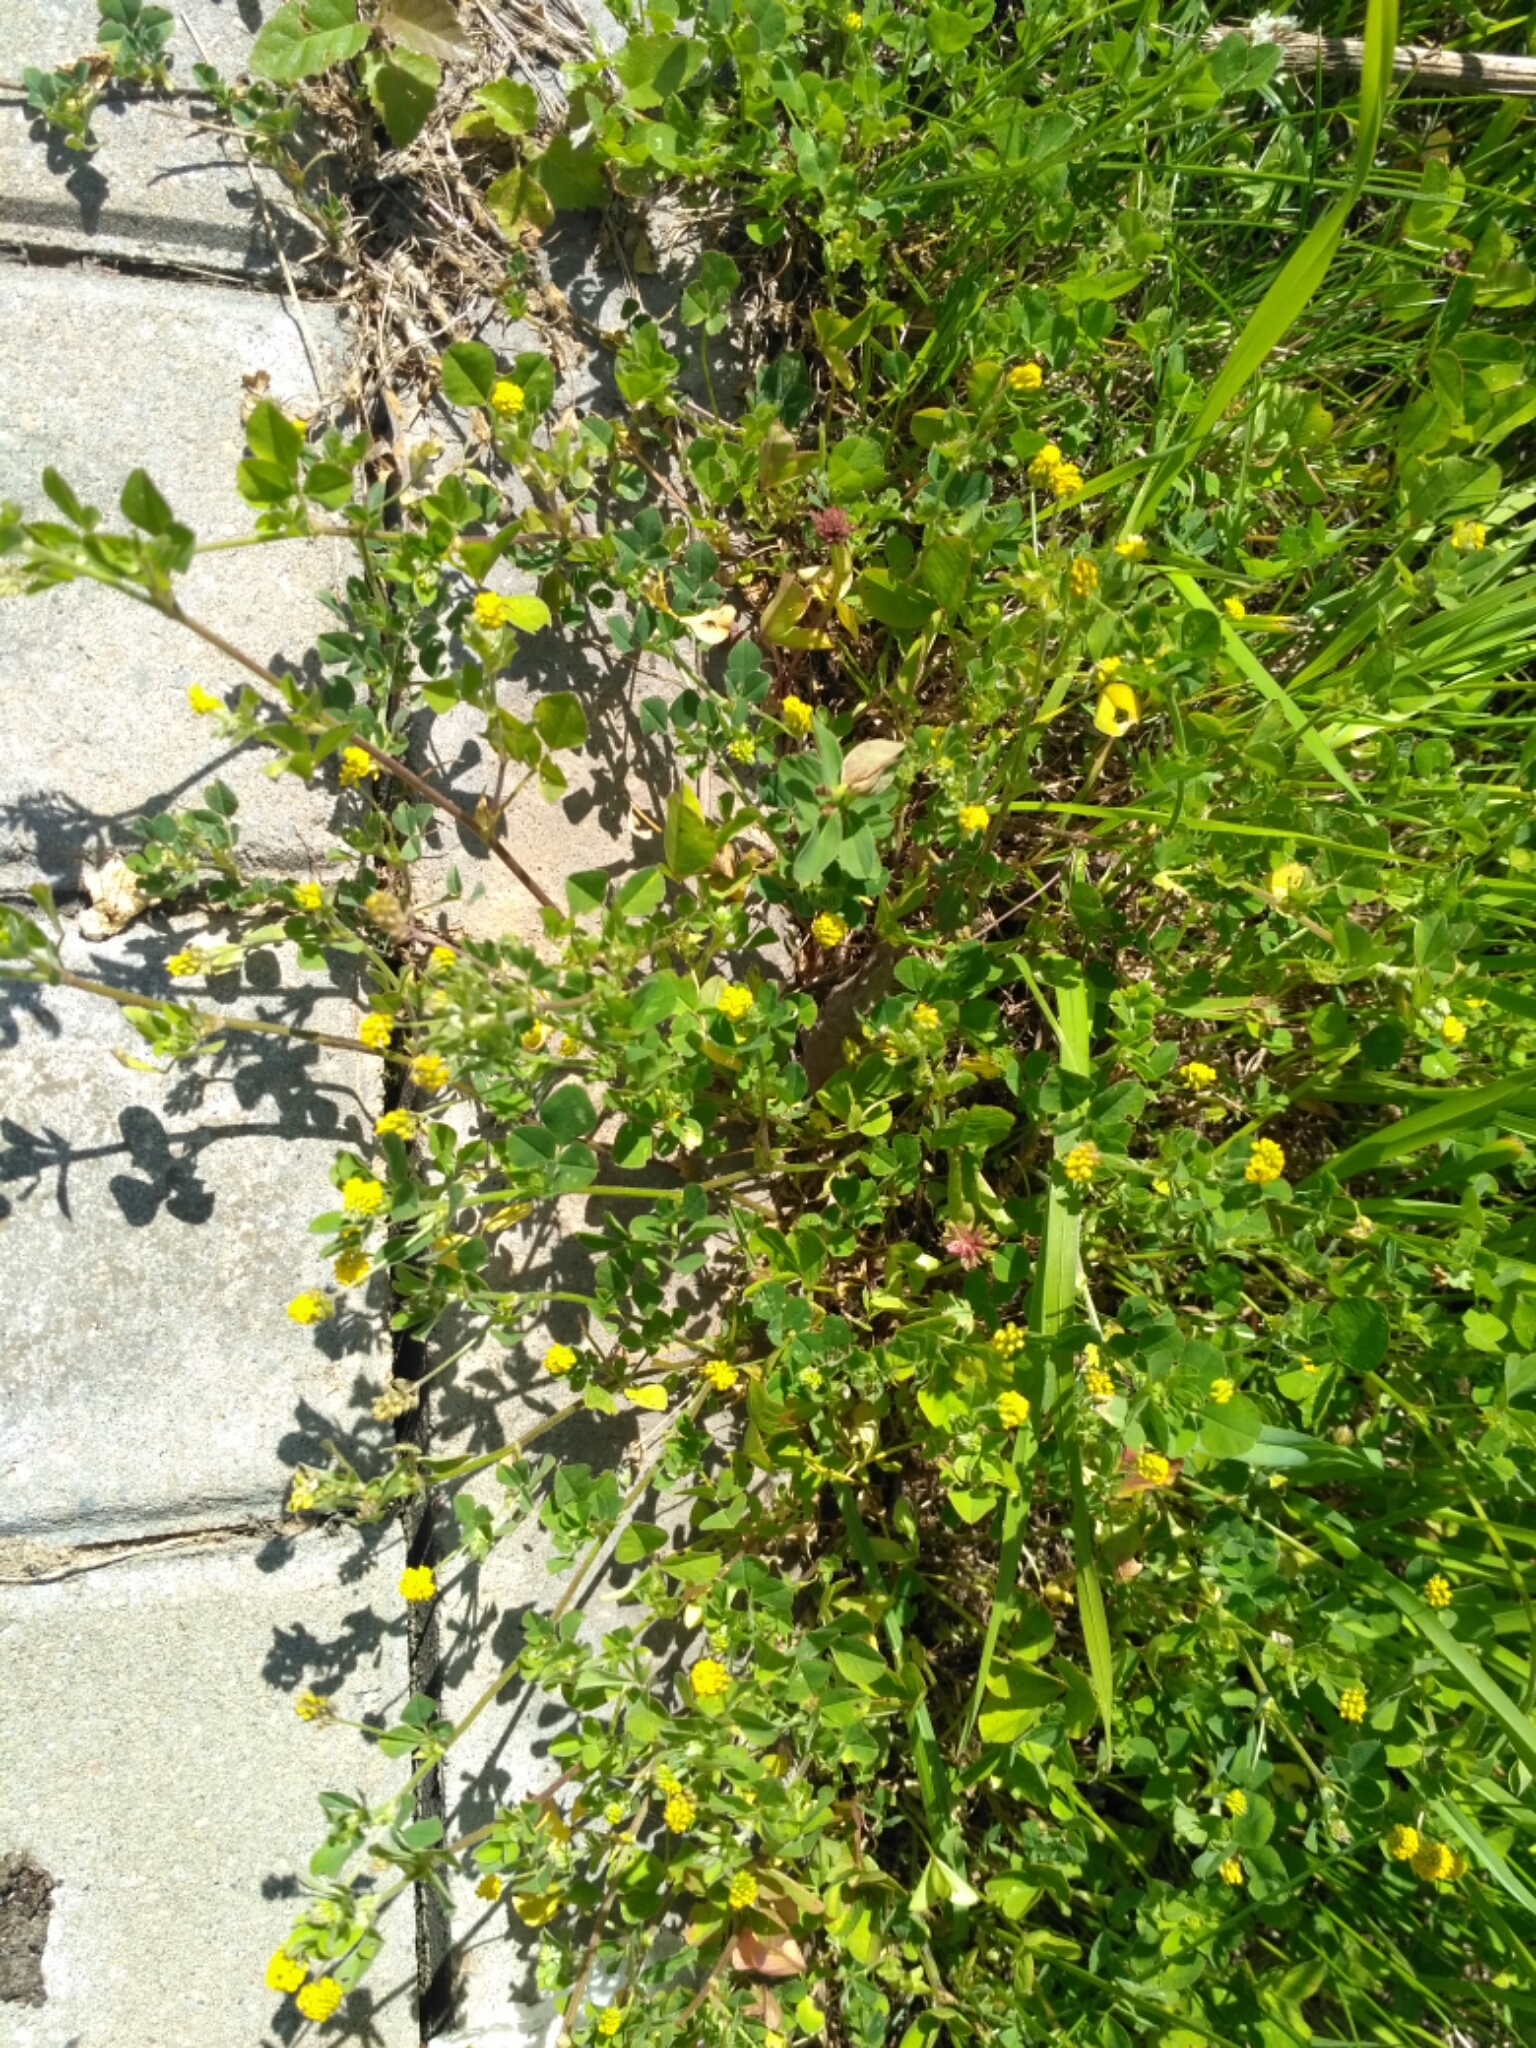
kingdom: Plantae
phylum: Tracheophyta
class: Magnoliopsida
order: Fabales
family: Fabaceae
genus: Medicago
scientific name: Medicago lupulina
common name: Black medick
